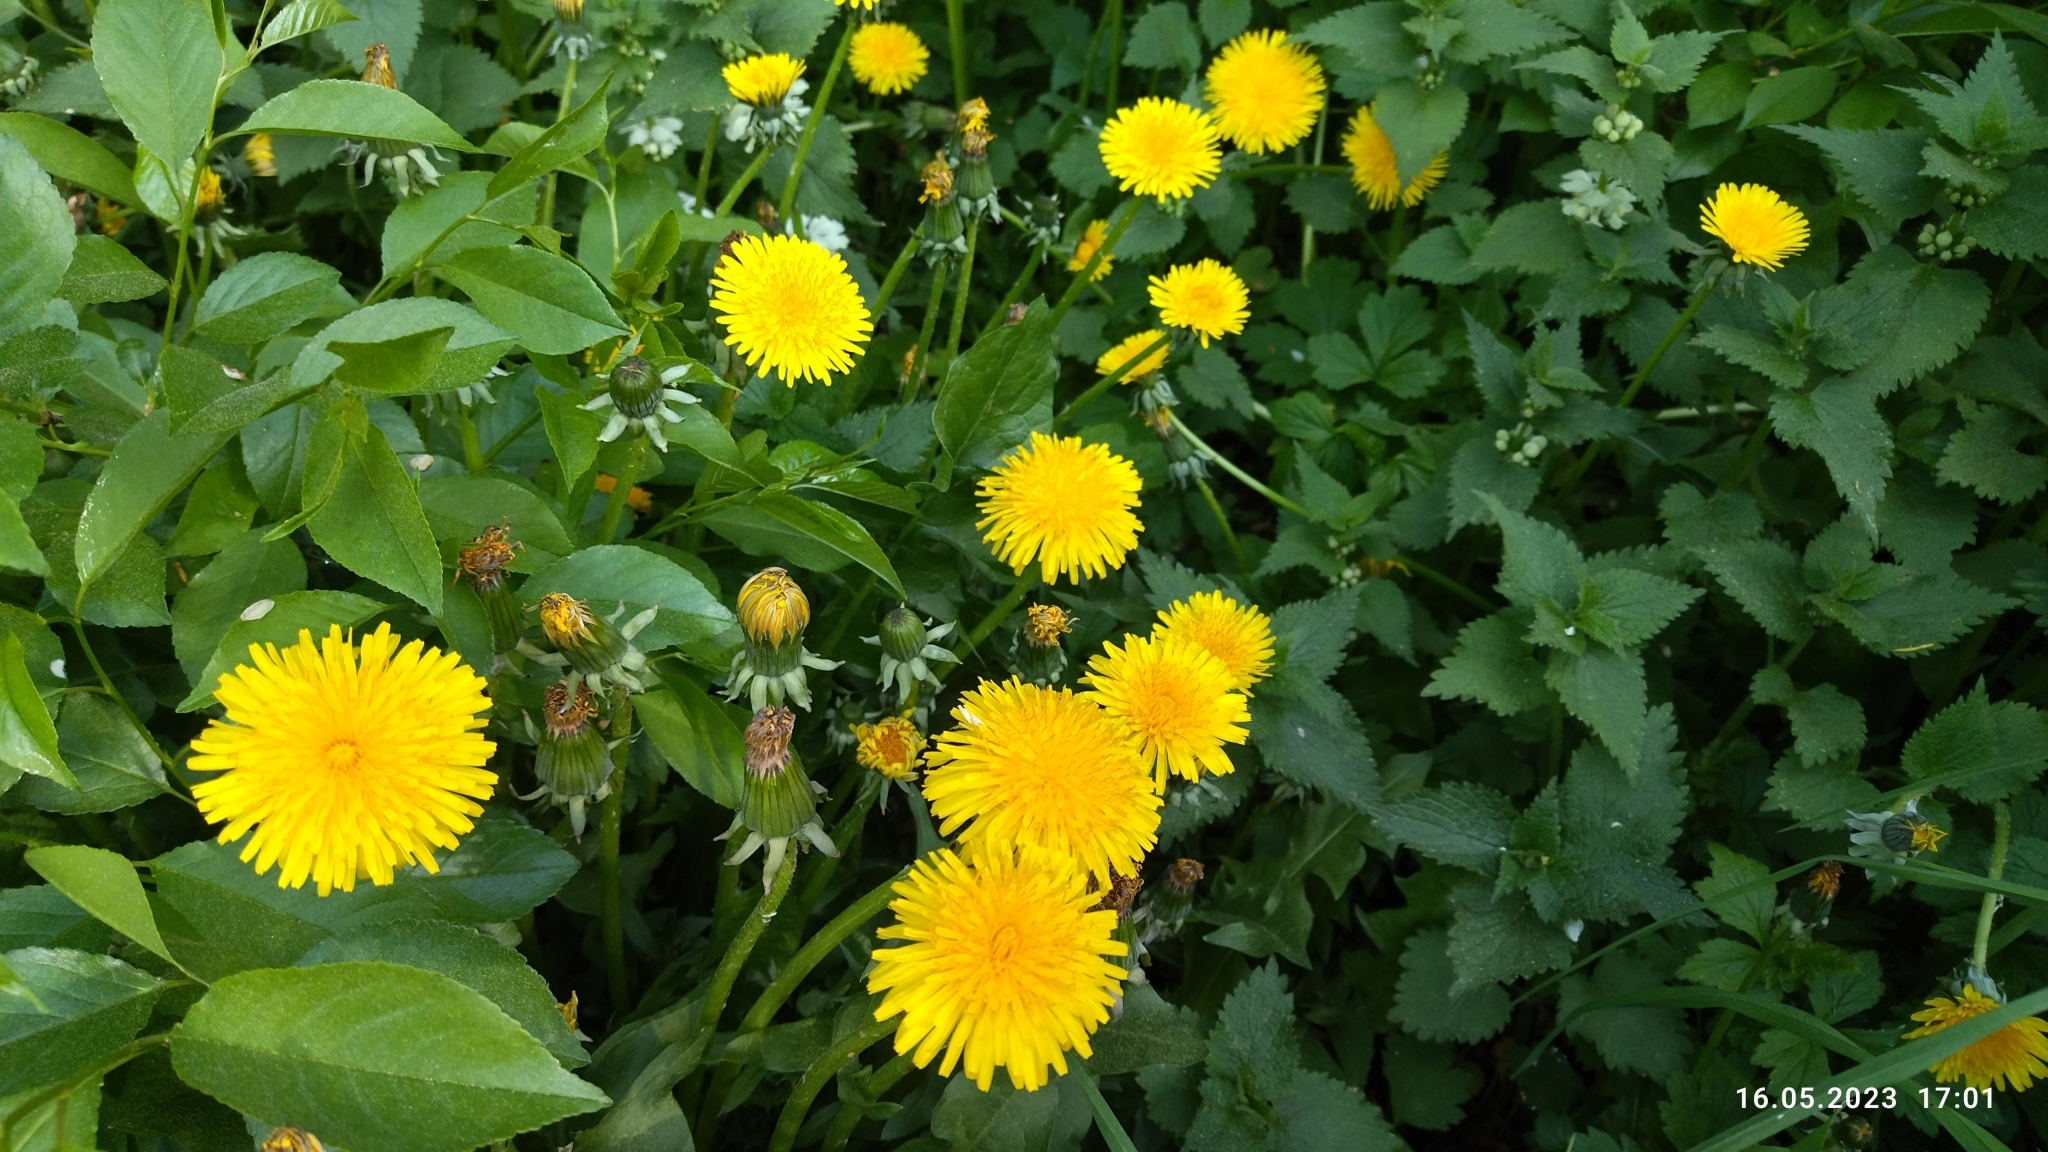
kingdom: Plantae
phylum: Tracheophyta
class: Magnoliopsida
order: Asterales
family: Asteraceae
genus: Taraxacum
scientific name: Taraxacum officinale
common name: Common dandelion
